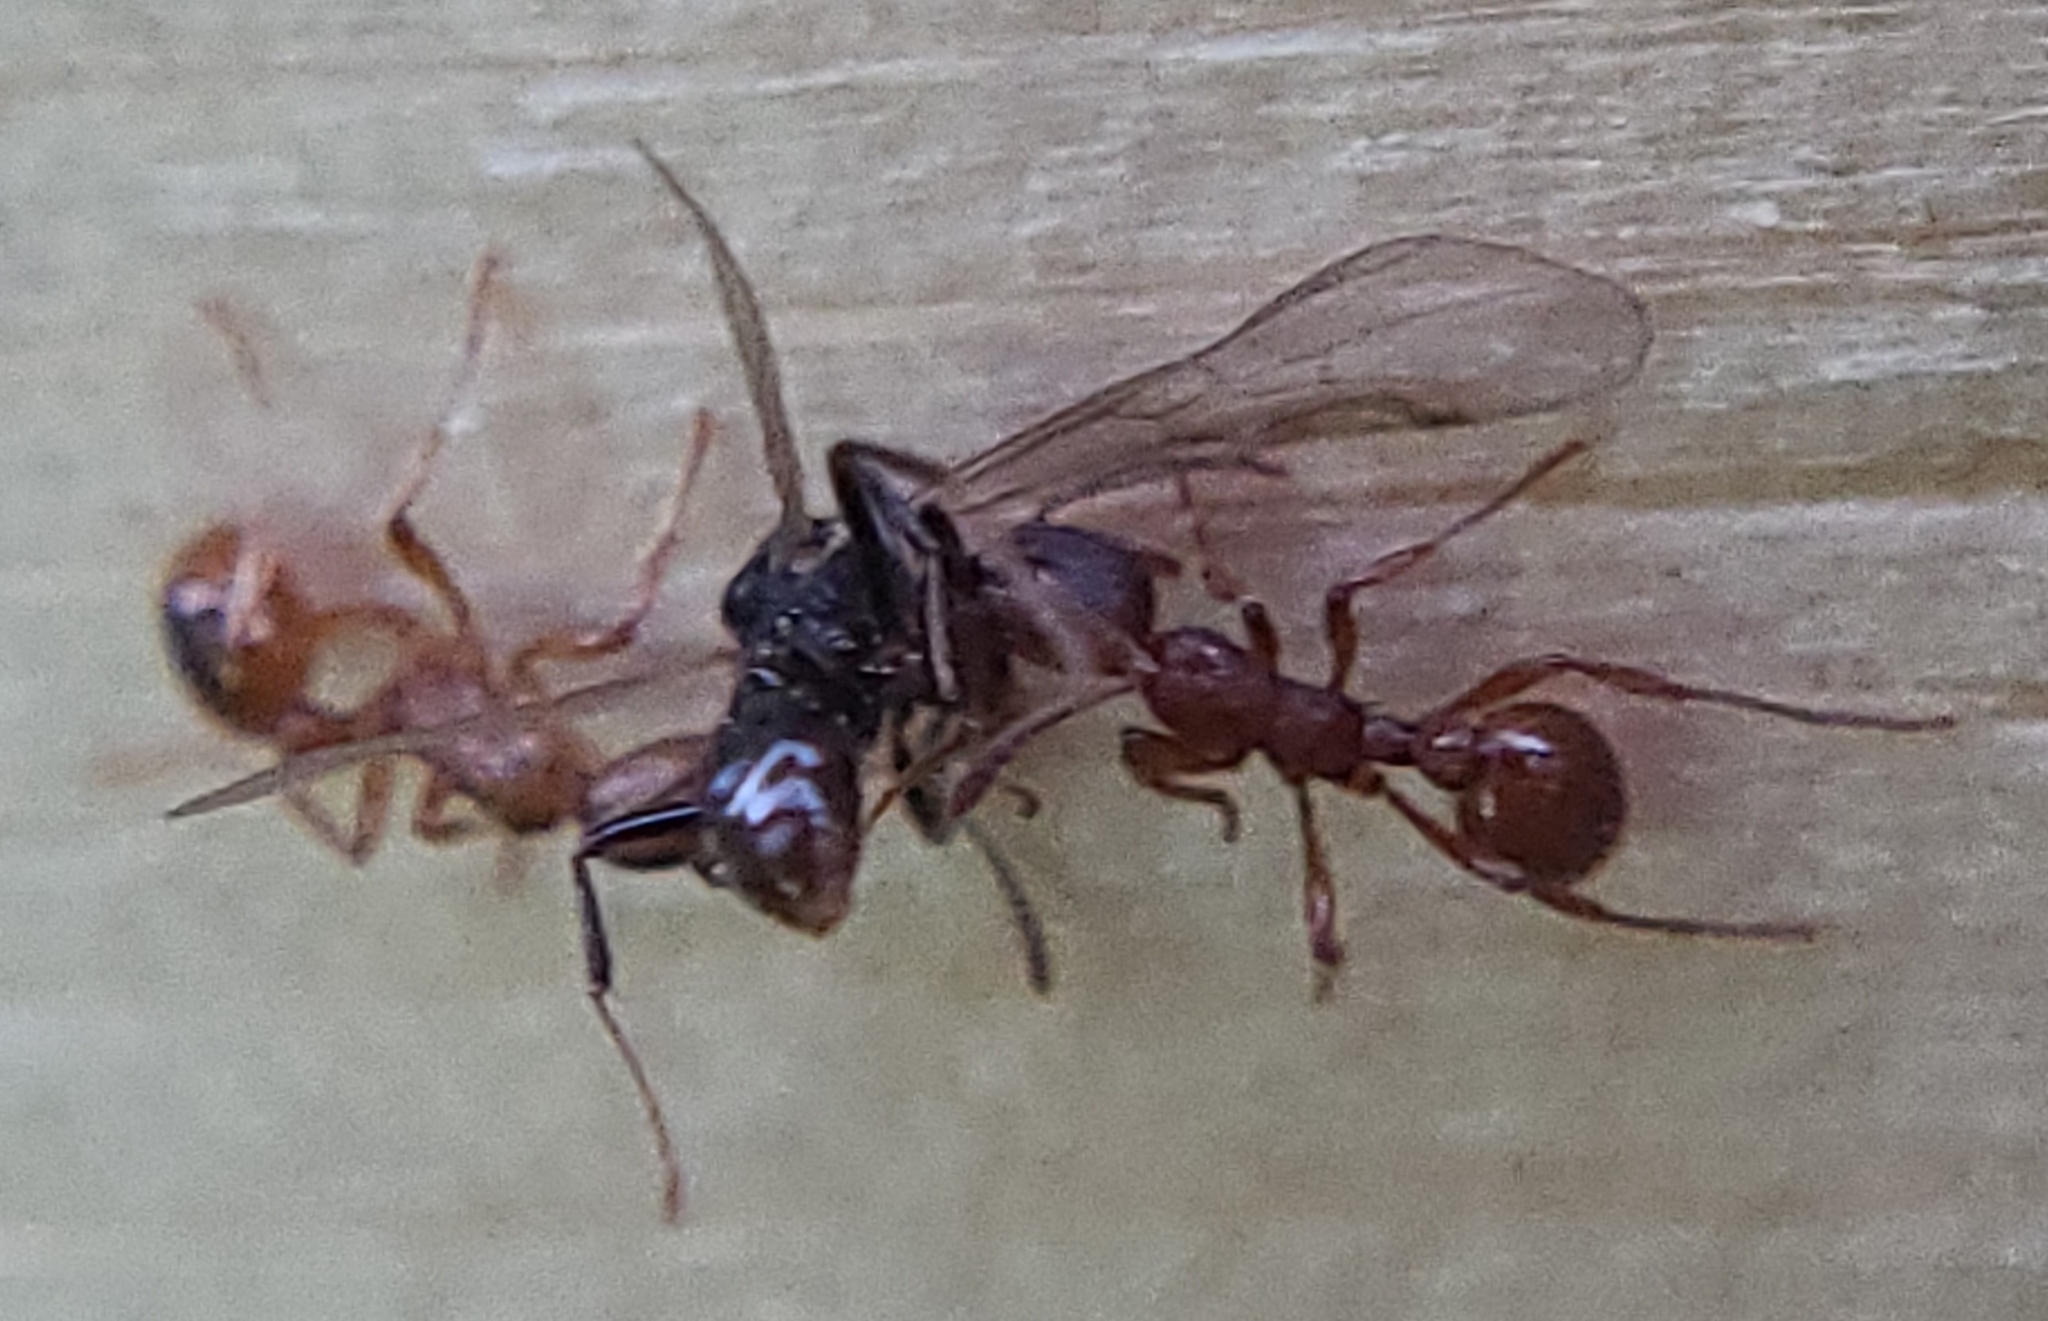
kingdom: Animalia
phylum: Arthropoda
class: Insecta
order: Hymenoptera
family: Formicidae
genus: Myrmica
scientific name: Myrmica rubra
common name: European fire ant
